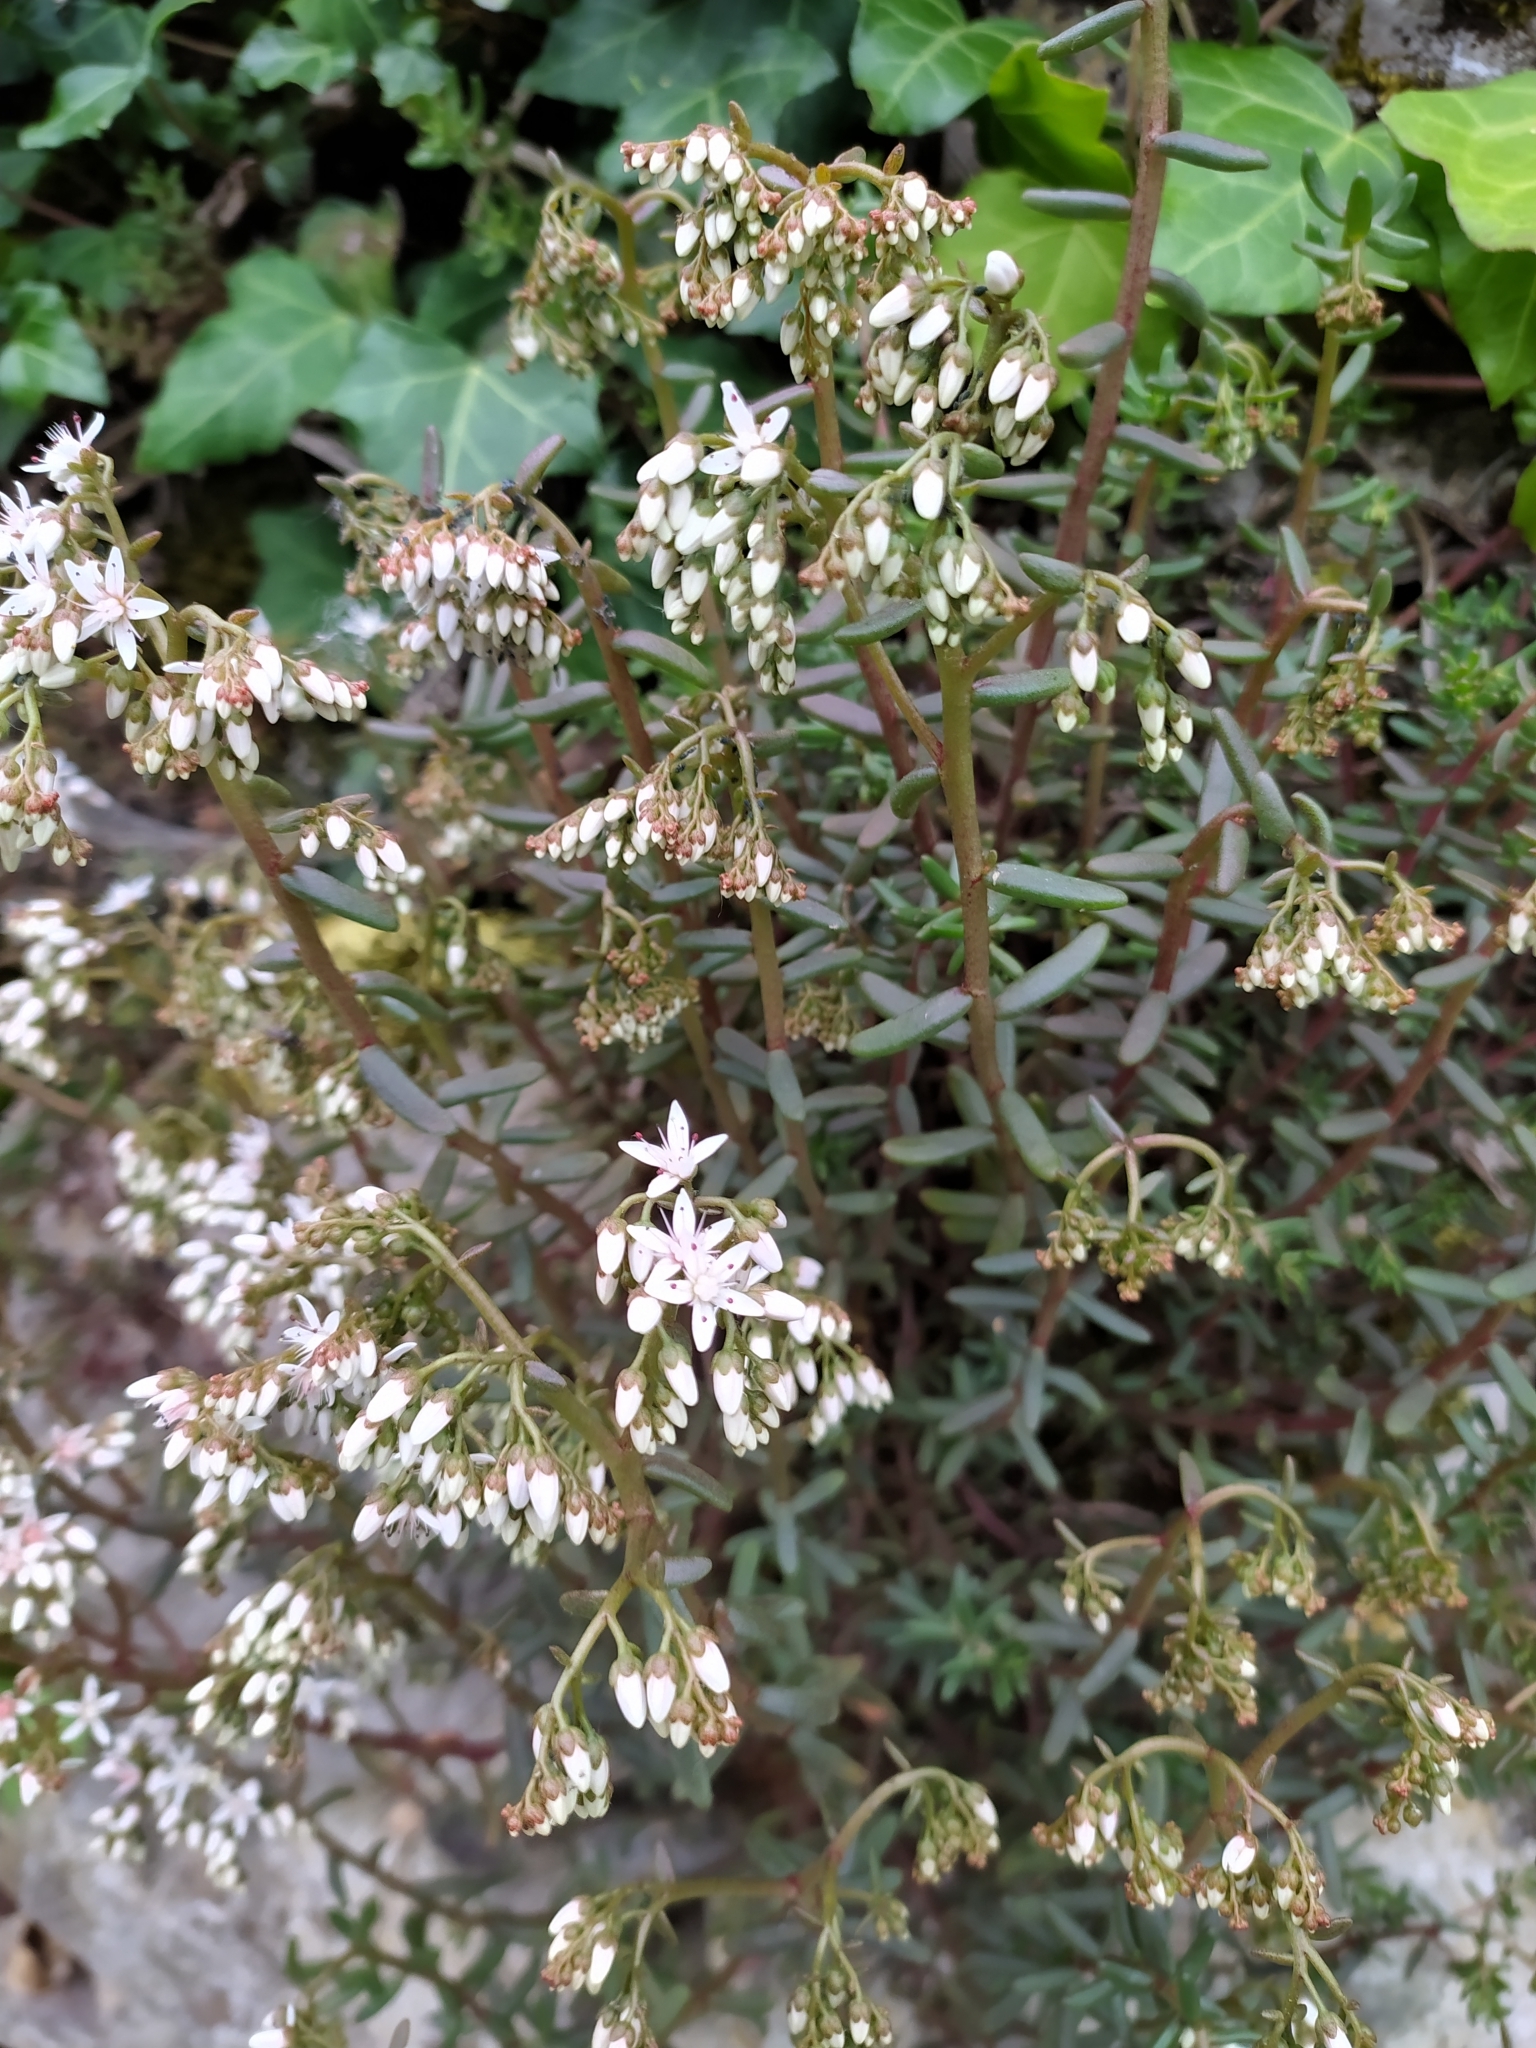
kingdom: Plantae
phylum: Tracheophyta
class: Magnoliopsida
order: Saxifragales
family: Crassulaceae
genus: Sedum
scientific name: Sedum album
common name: White stonecrop
